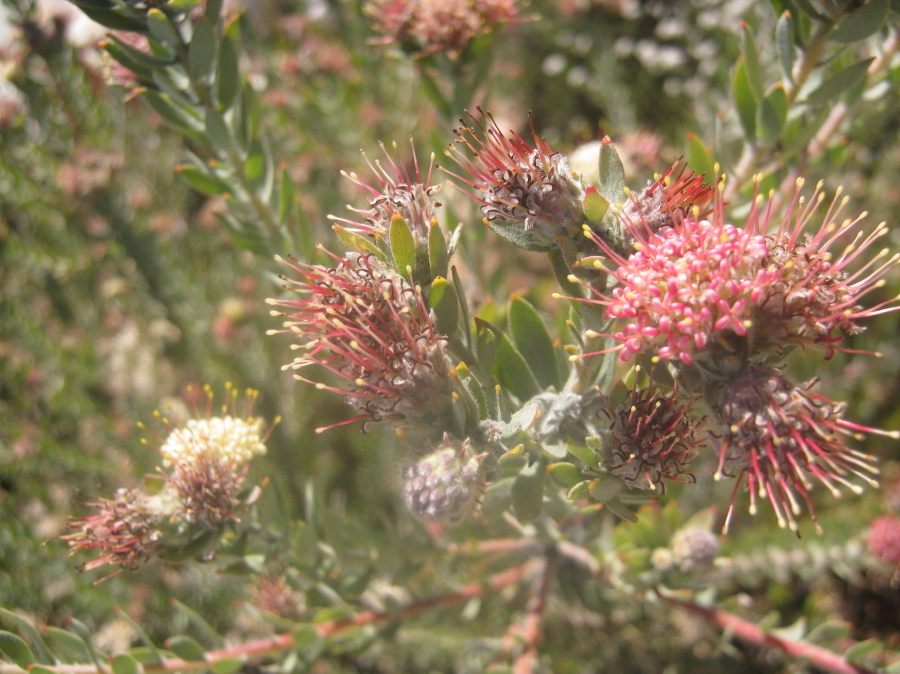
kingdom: Plantae
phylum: Tracheophyta
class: Magnoliopsida
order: Proteales
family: Proteaceae
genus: Leucospermum
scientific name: Leucospermum wittebergense
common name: Swartberg pincushion
